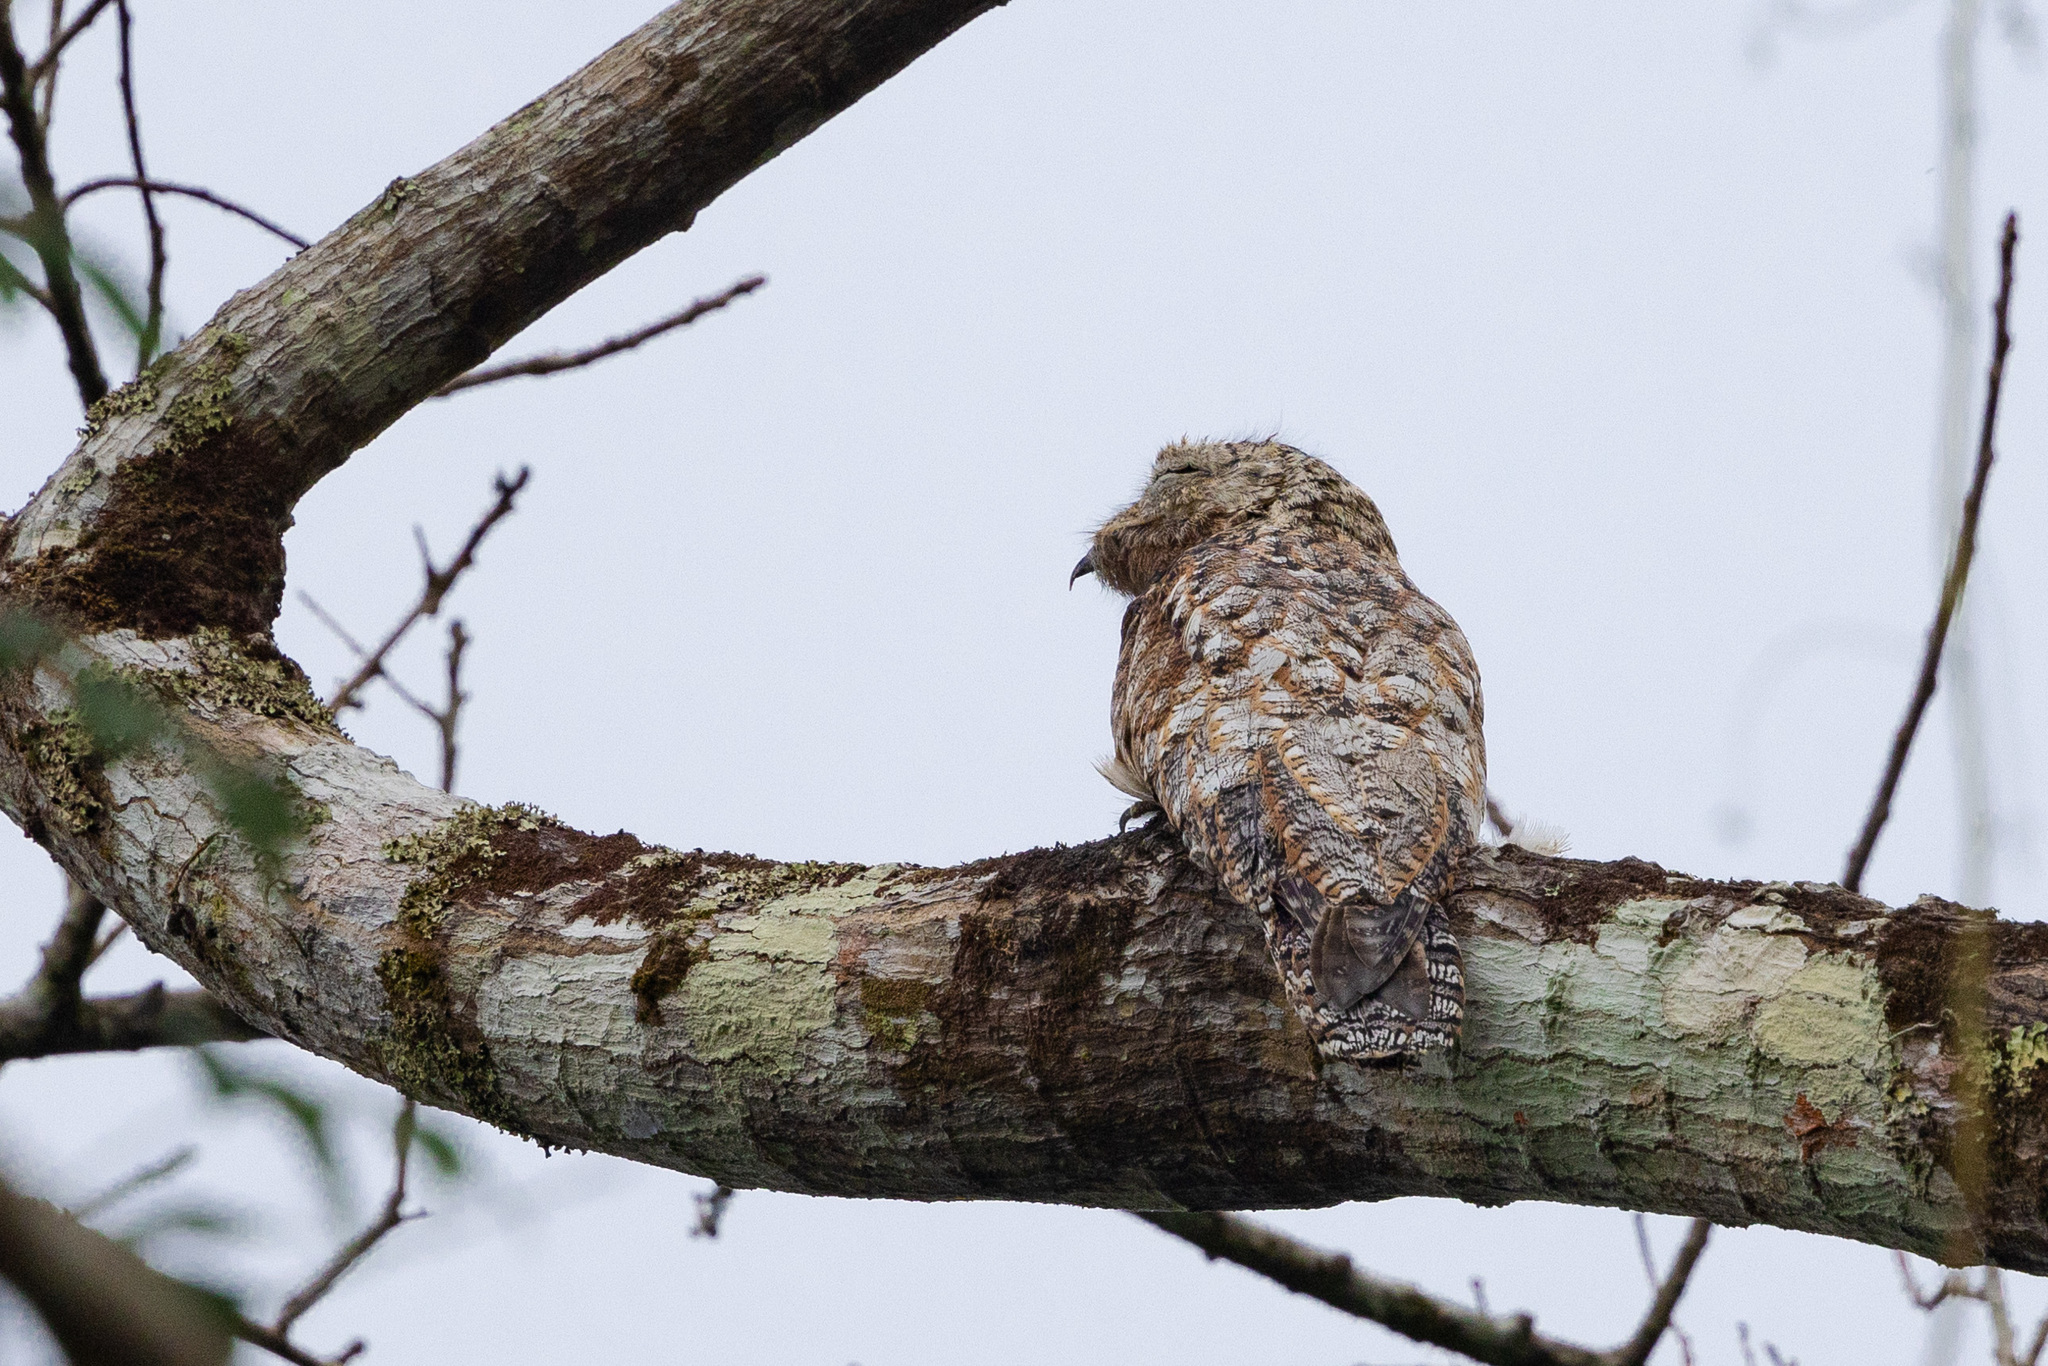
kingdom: Animalia
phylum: Chordata
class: Aves
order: Nyctibiiformes
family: Nyctibiidae
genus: Nyctibius
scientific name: Nyctibius grandis
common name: Great potoo
